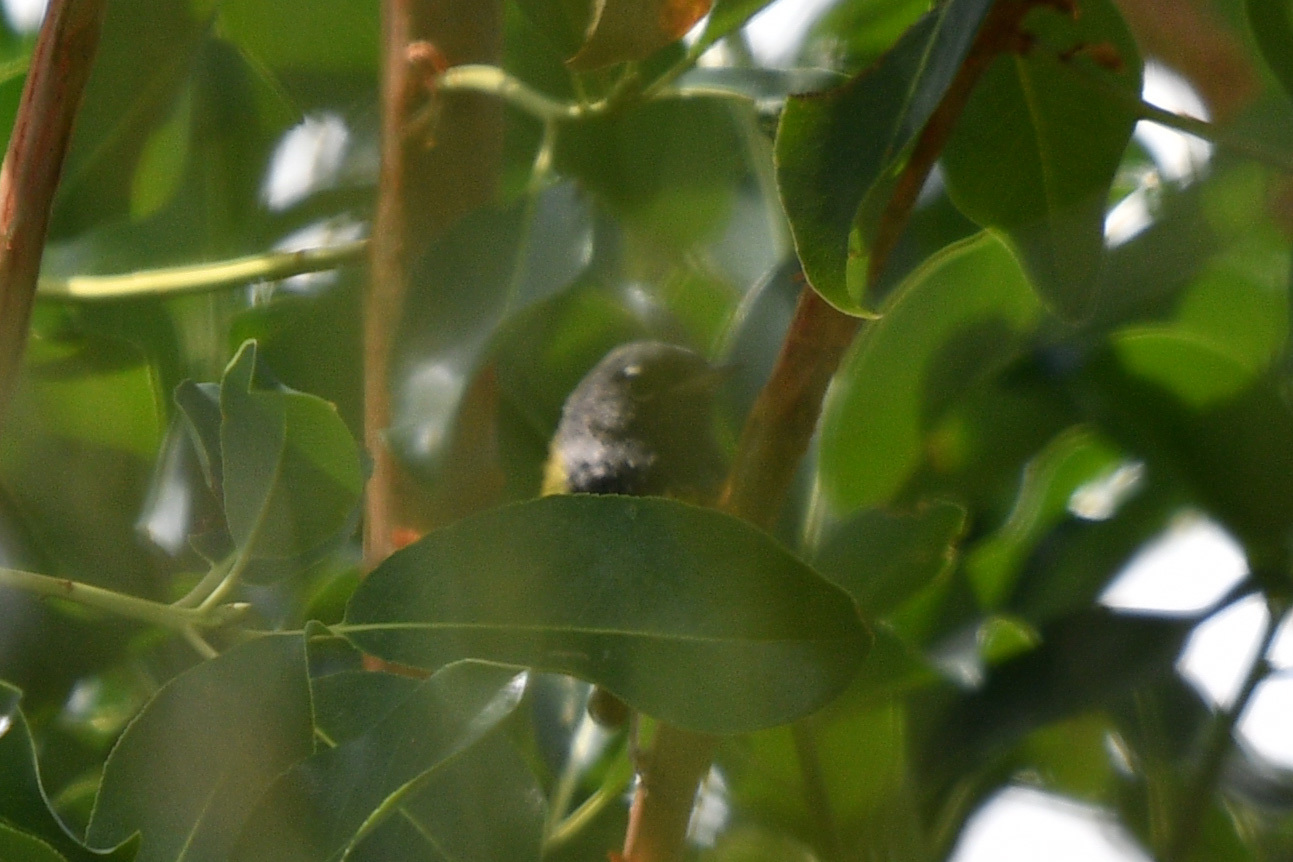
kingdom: Animalia
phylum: Chordata
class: Aves
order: Passeriformes
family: Parulidae
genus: Geothlypis
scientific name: Geothlypis tolmiei
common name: Macgillivray's warbler
